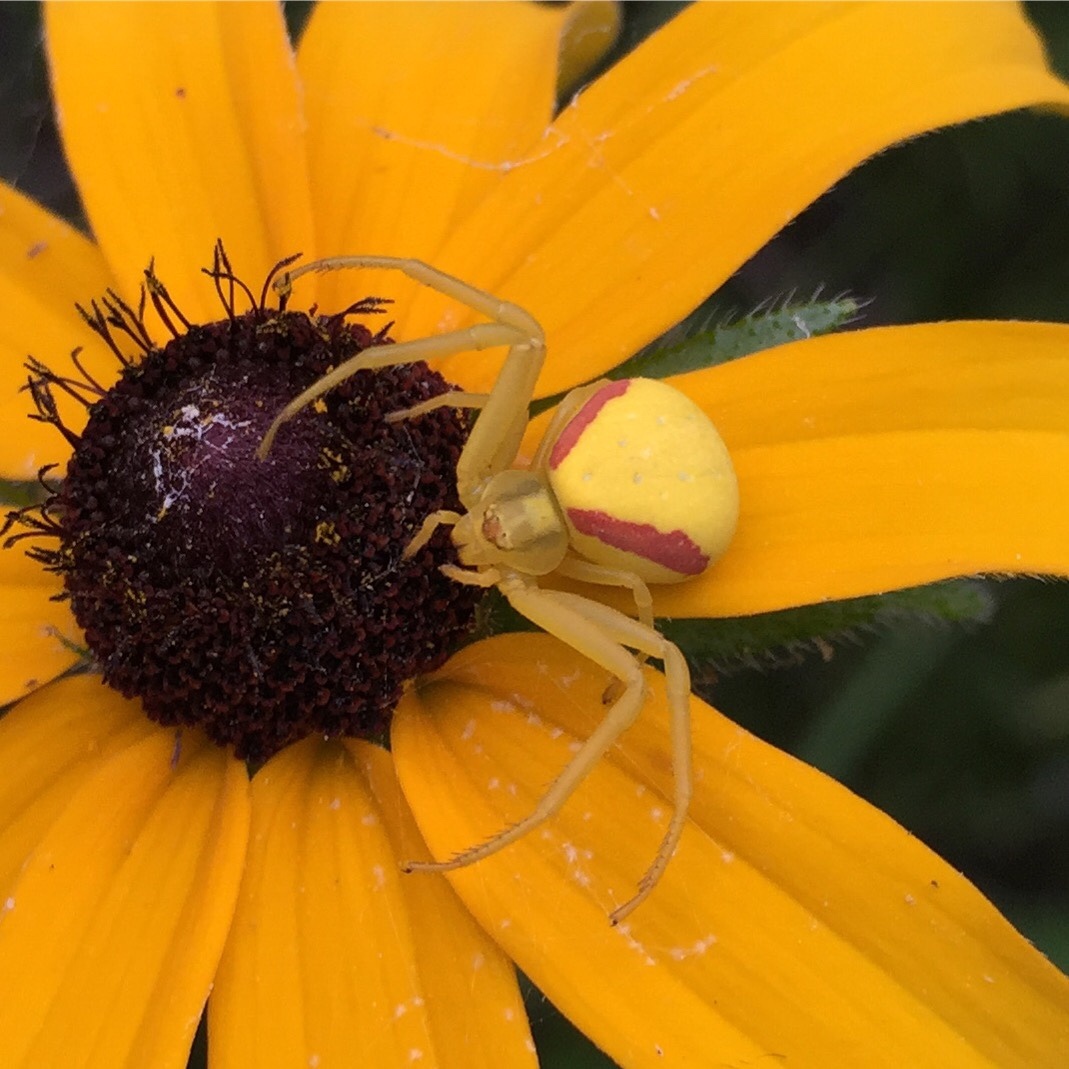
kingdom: Animalia
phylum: Arthropoda
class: Arachnida
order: Araneae
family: Thomisidae
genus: Misumena
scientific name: Misumena vatia
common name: Goldenrod crab spider
